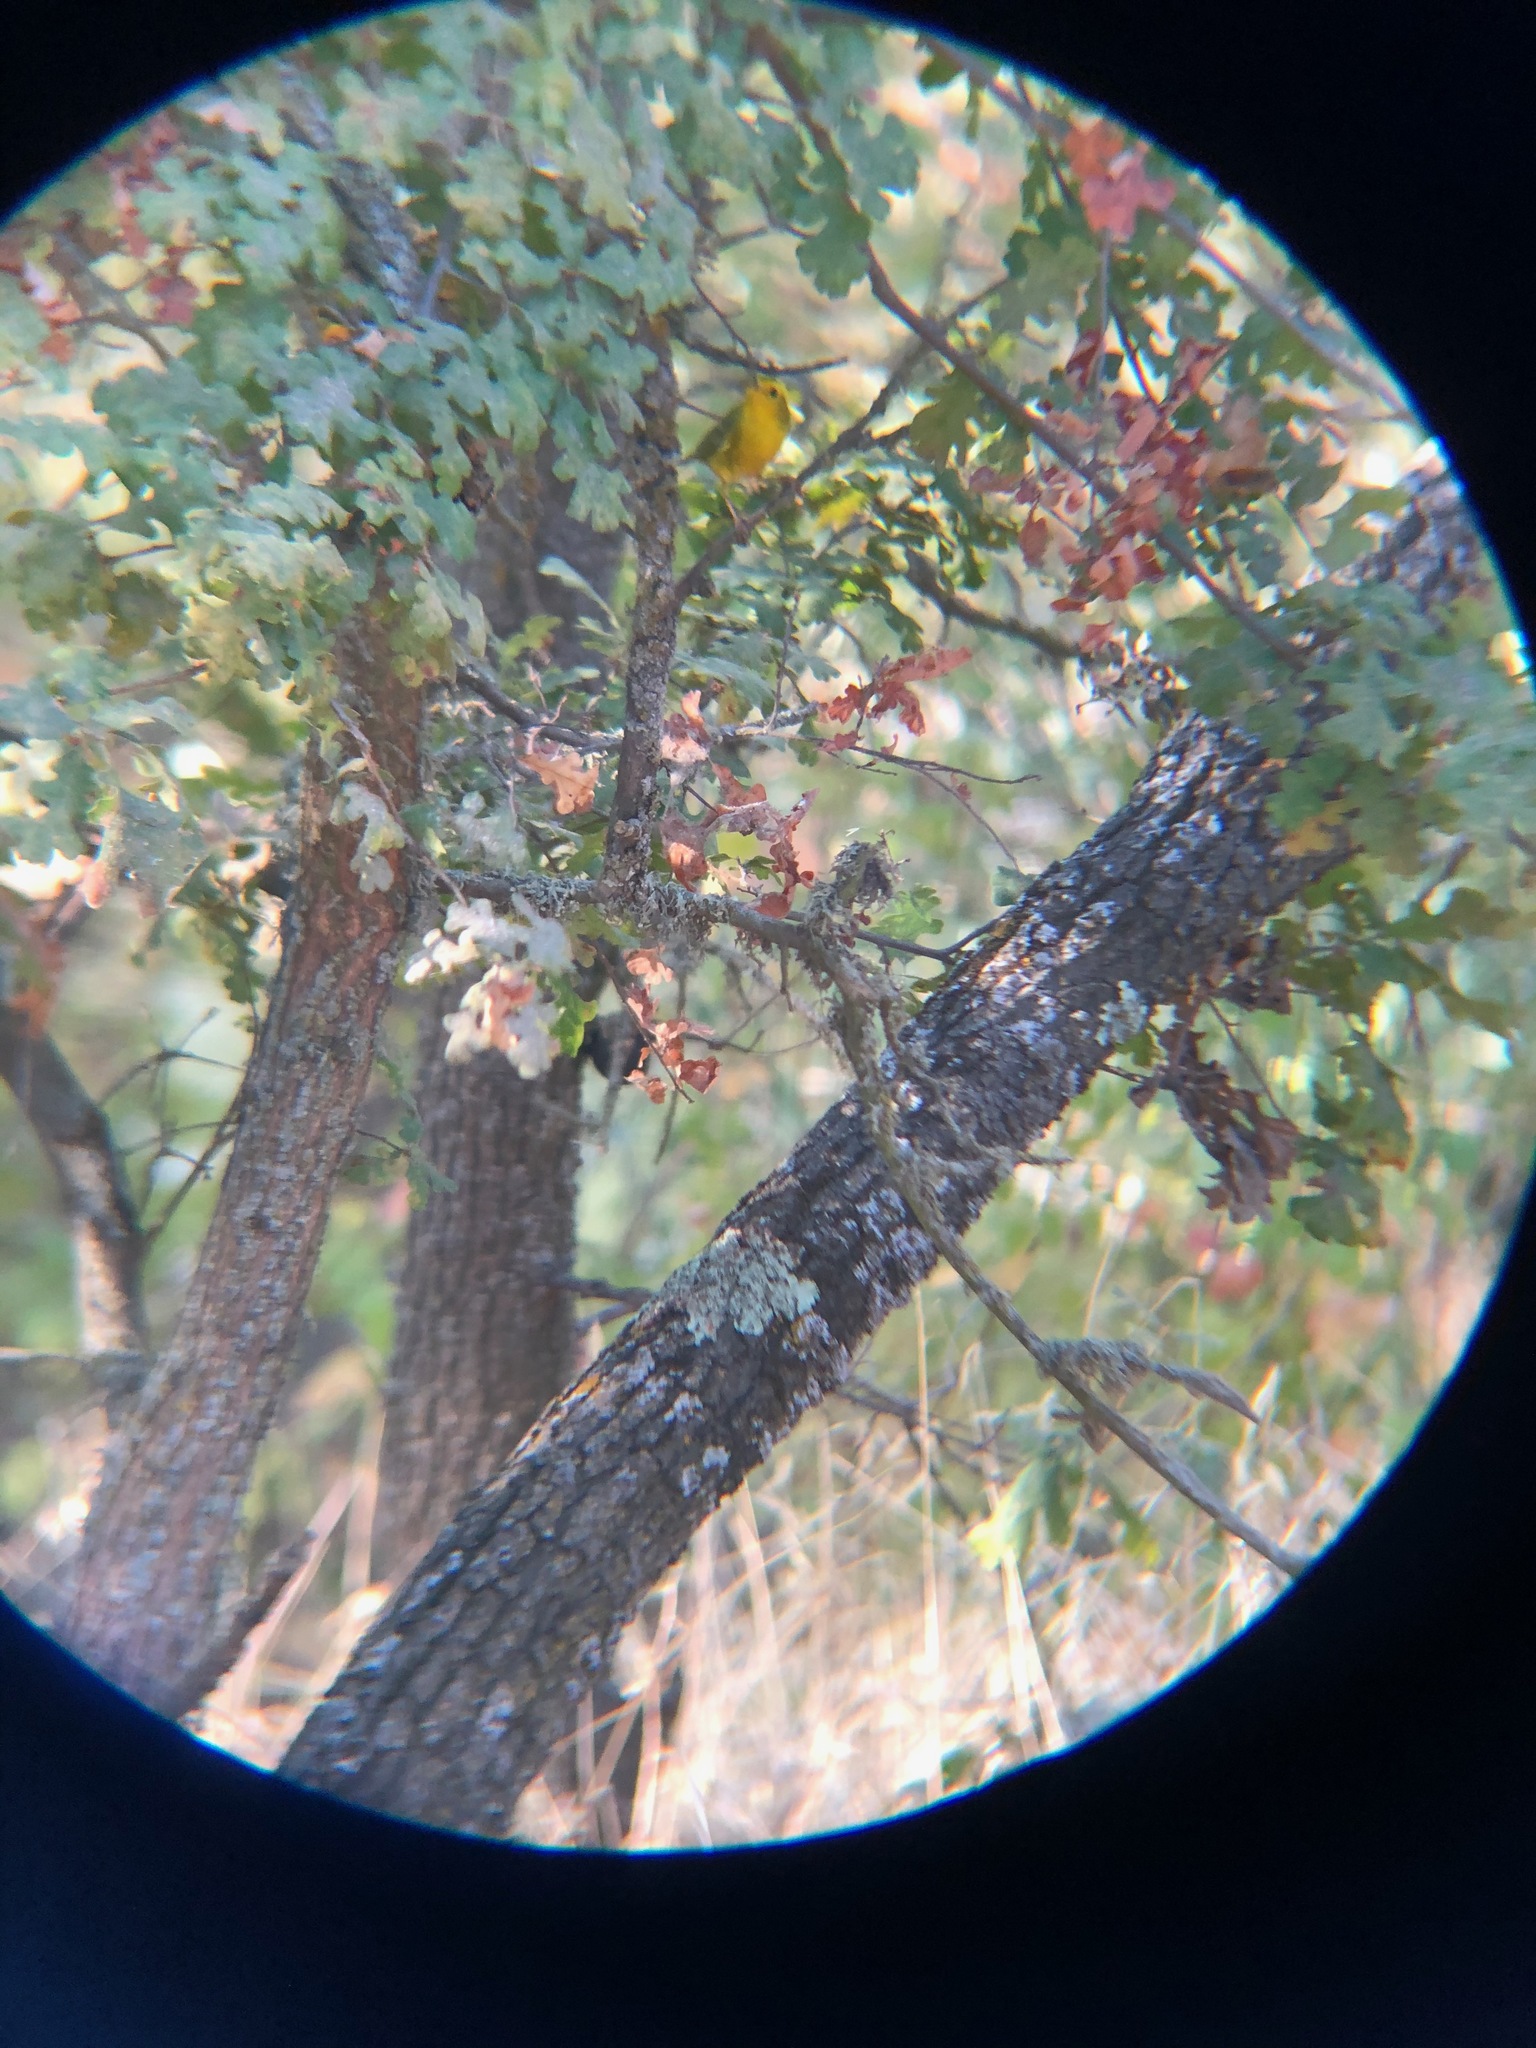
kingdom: Animalia
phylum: Chordata
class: Aves
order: Passeriformes
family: Parulidae
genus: Cardellina
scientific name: Cardellina pusilla
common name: Wilson's warbler
